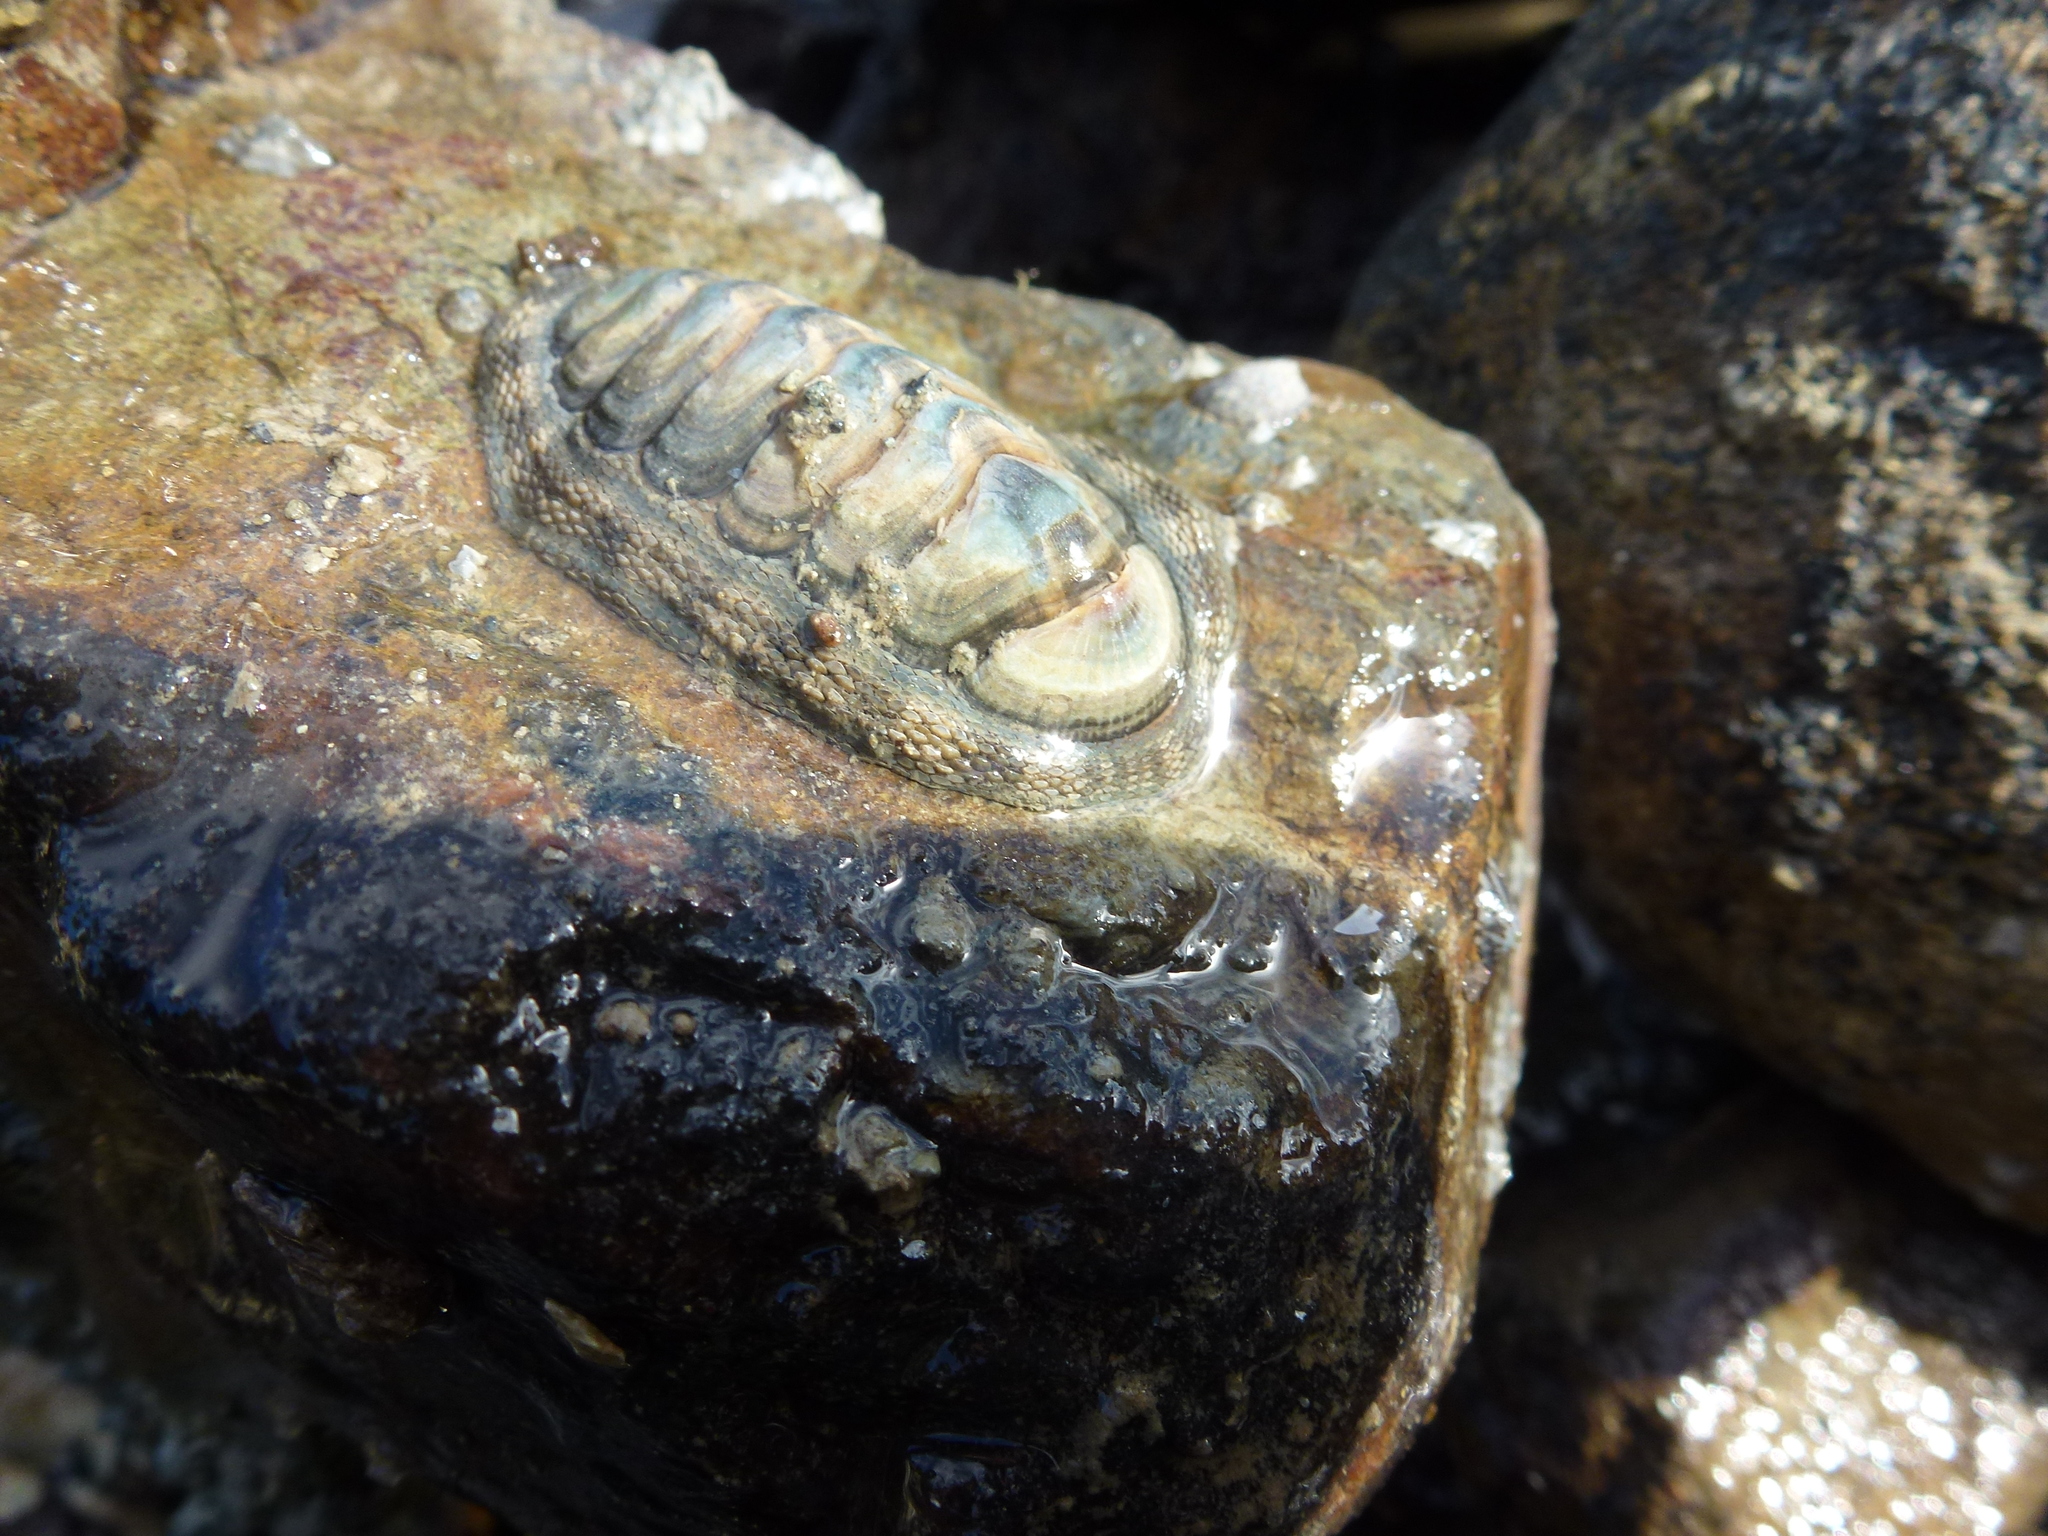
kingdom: Animalia
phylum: Mollusca
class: Polyplacophora
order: Chitonida
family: Chitonidae
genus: Sypharochiton
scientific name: Sypharochiton pelliserpentis
